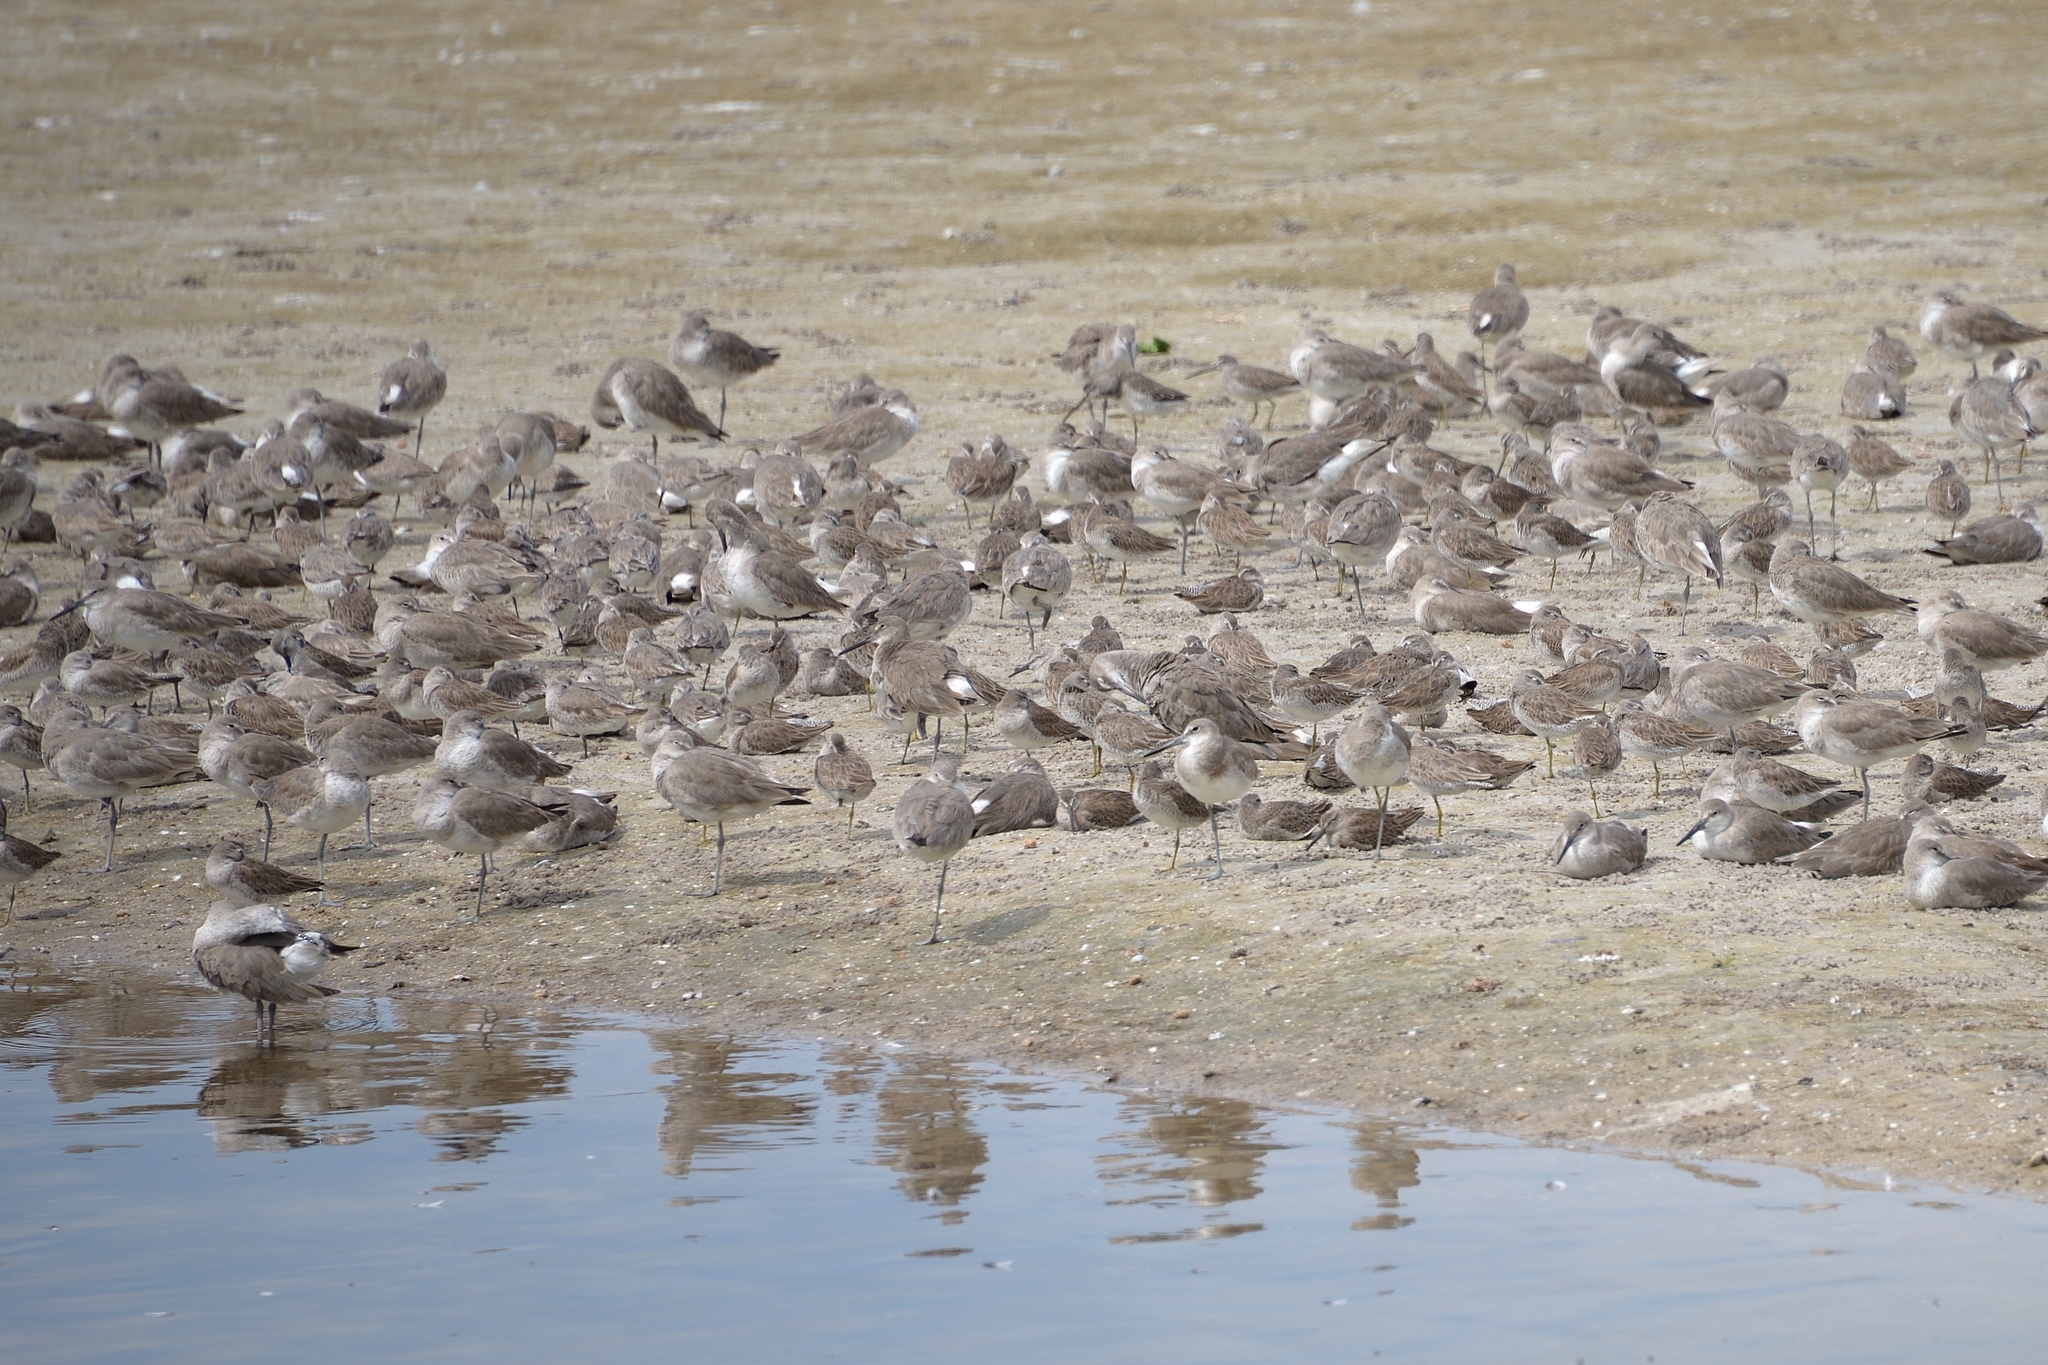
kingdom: Animalia
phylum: Chordata
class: Aves
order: Charadriiformes
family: Scolopacidae
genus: Tringa
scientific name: Tringa semipalmata
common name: Willet
